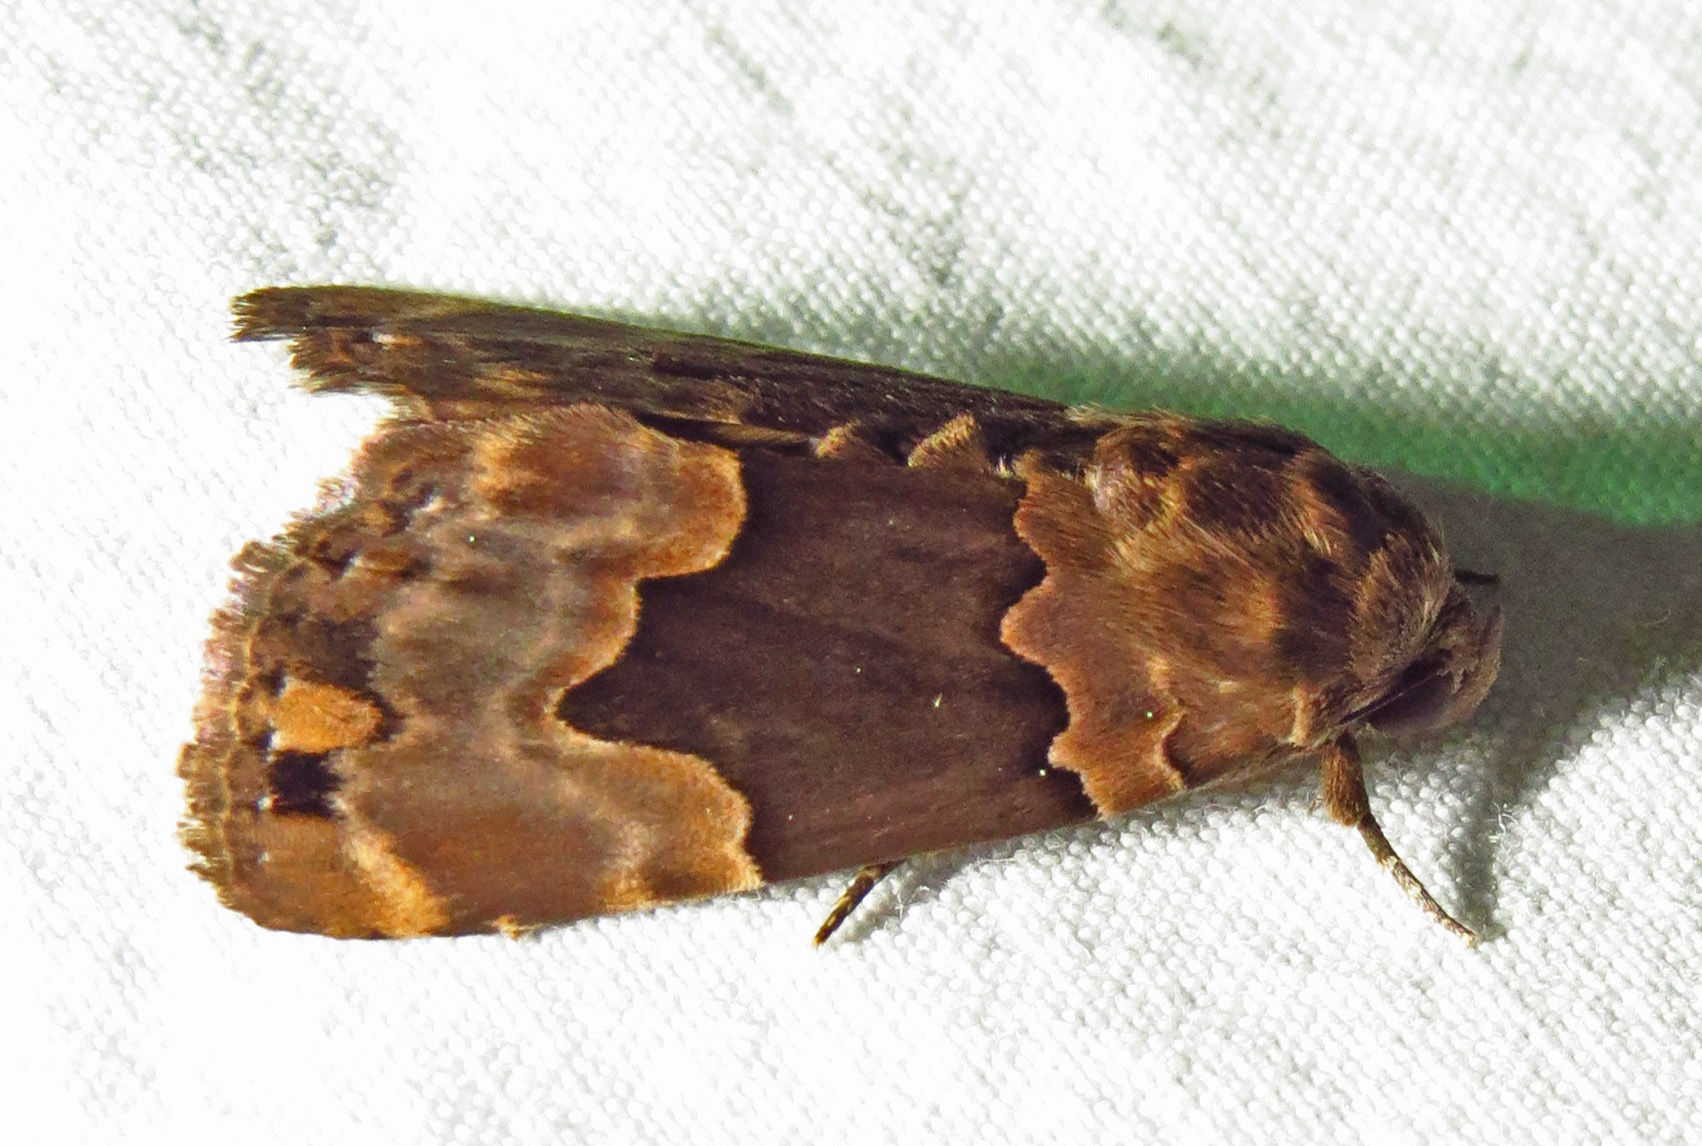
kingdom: Animalia
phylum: Arthropoda
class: Insecta
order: Lepidoptera
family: Erebidae
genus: Dinumma
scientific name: Dinumma deponens
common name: Purplish moth
